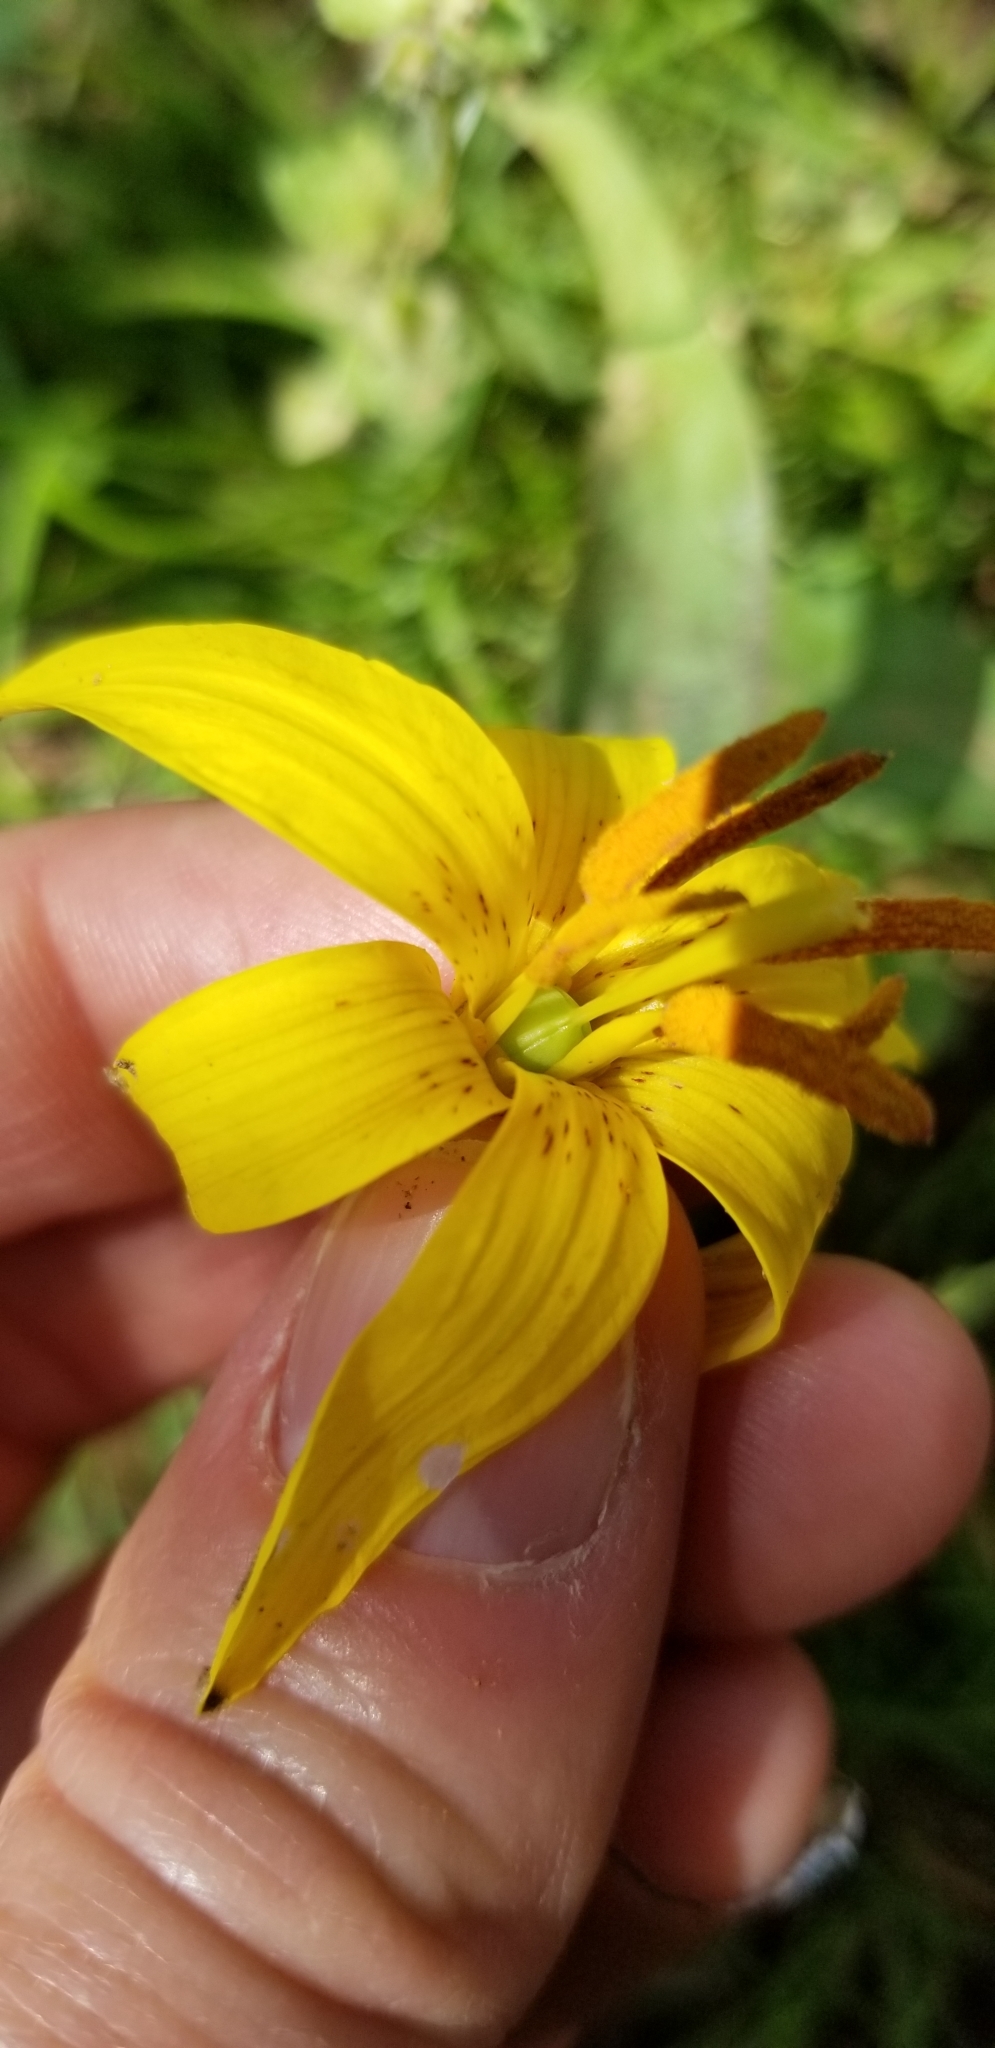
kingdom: Plantae
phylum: Tracheophyta
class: Liliopsida
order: Liliales
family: Liliaceae
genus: Erythronium
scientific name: Erythronium americanum
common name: Yellow adder's-tongue
